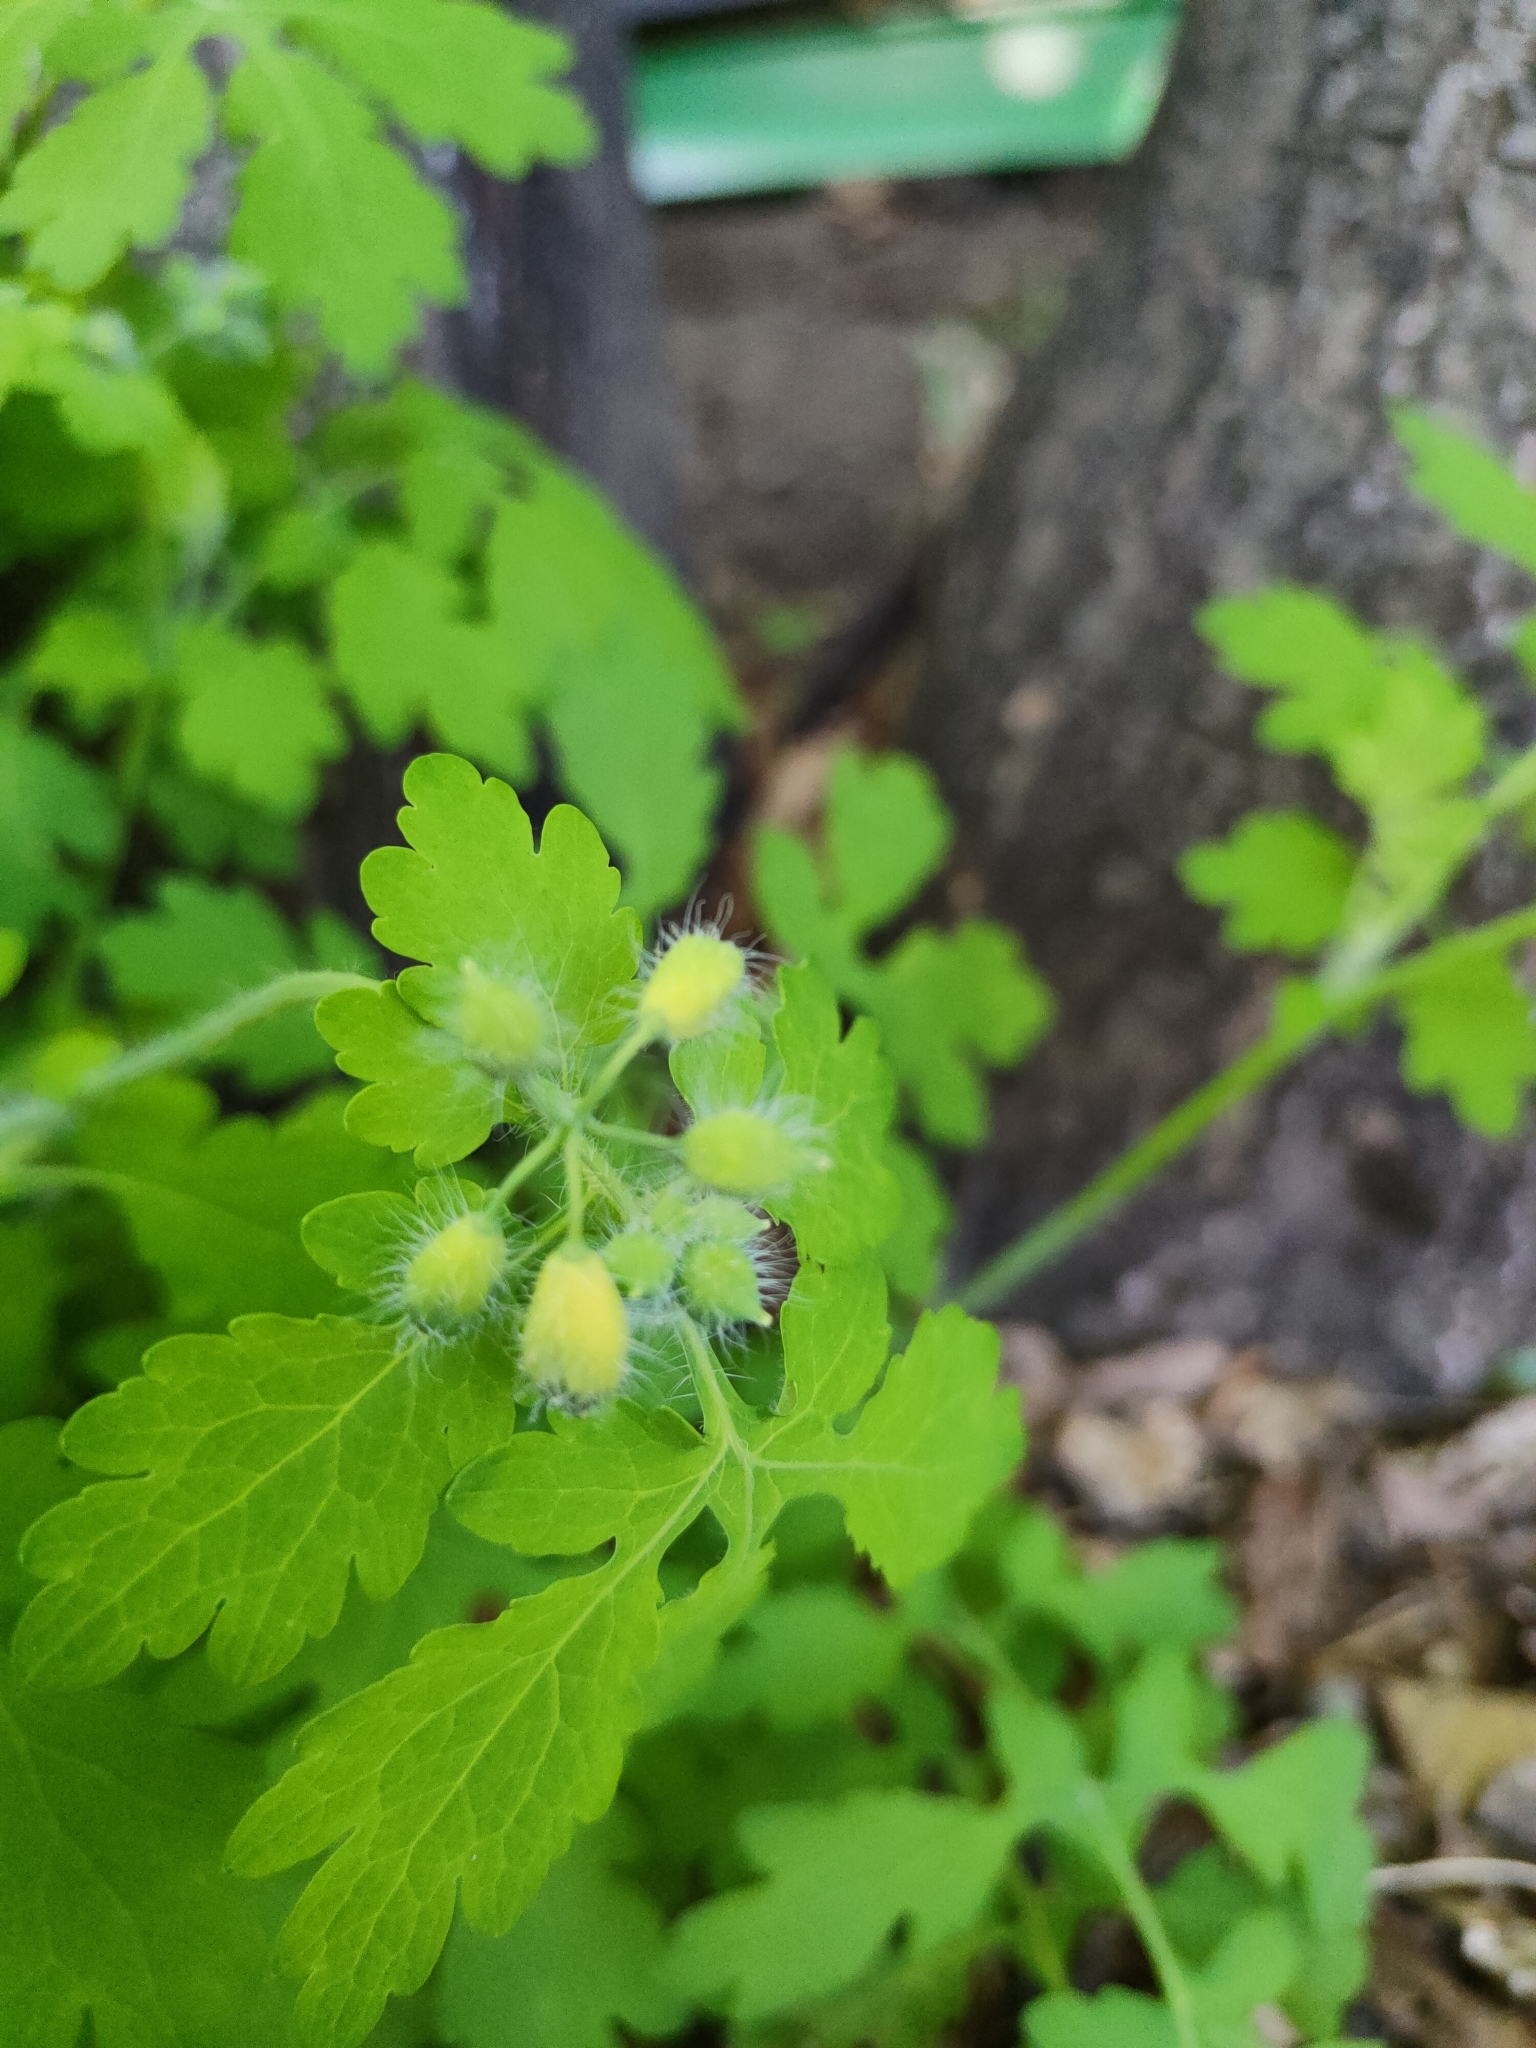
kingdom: Plantae
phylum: Tracheophyta
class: Magnoliopsida
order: Ranunculales
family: Papaveraceae
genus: Chelidonium
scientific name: Chelidonium majus
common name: Greater celandine
